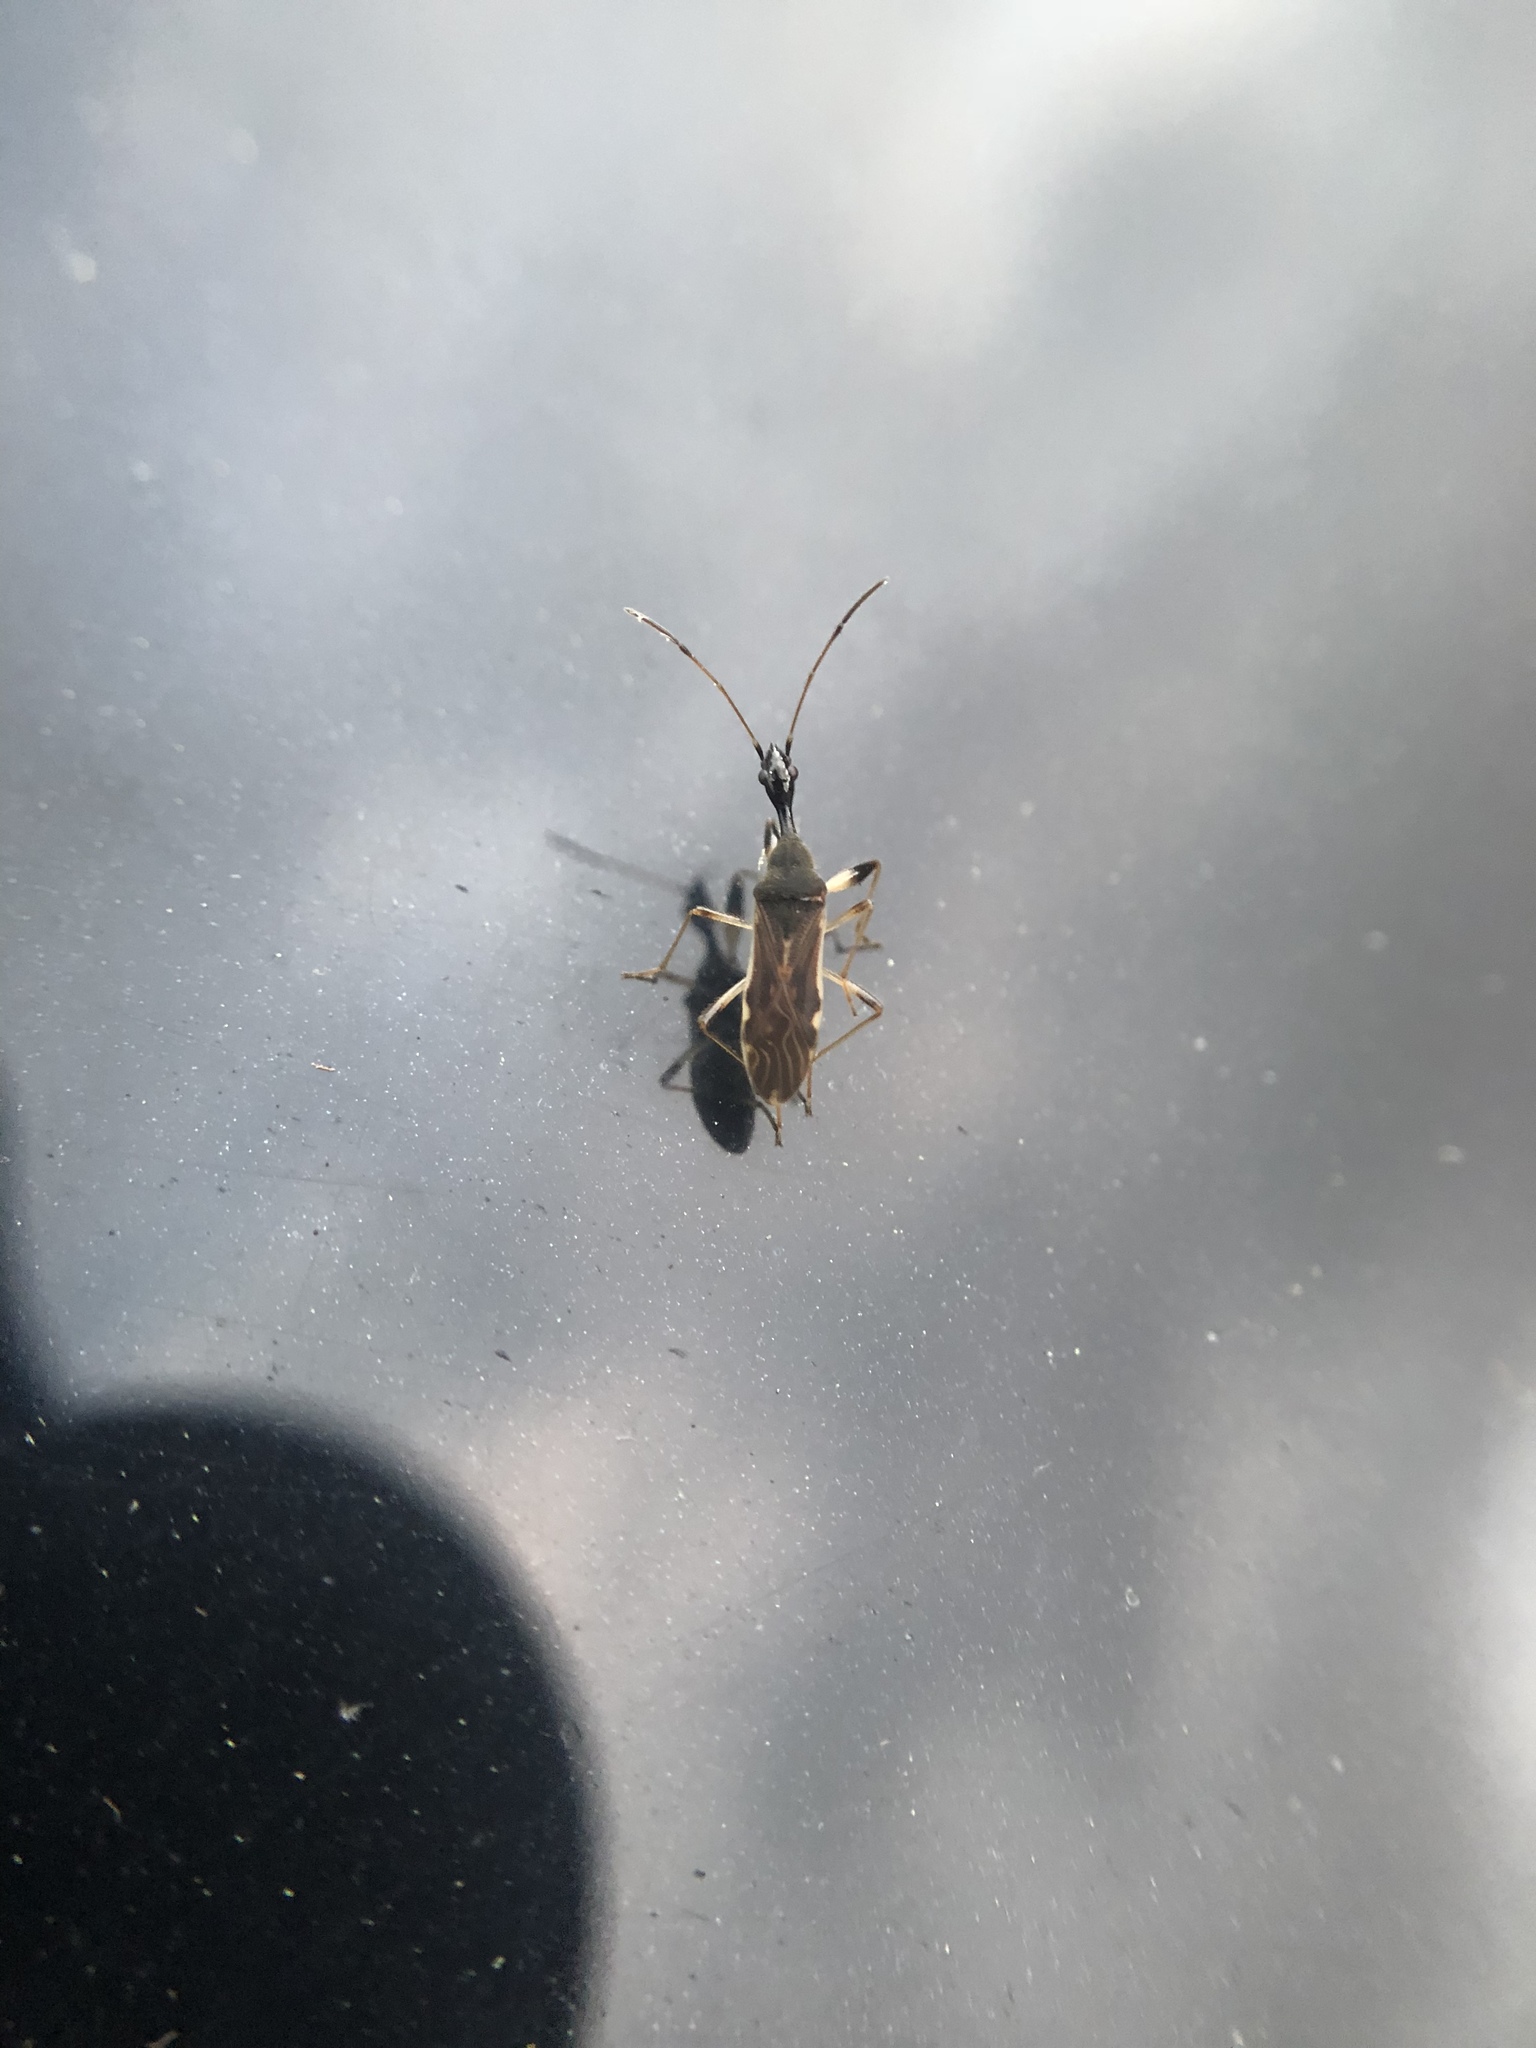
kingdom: Animalia
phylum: Arthropoda
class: Insecta
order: Hemiptera
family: Rhyparochromidae
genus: Myodocha
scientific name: Myodocha serripes
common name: Long-necked seed bug
